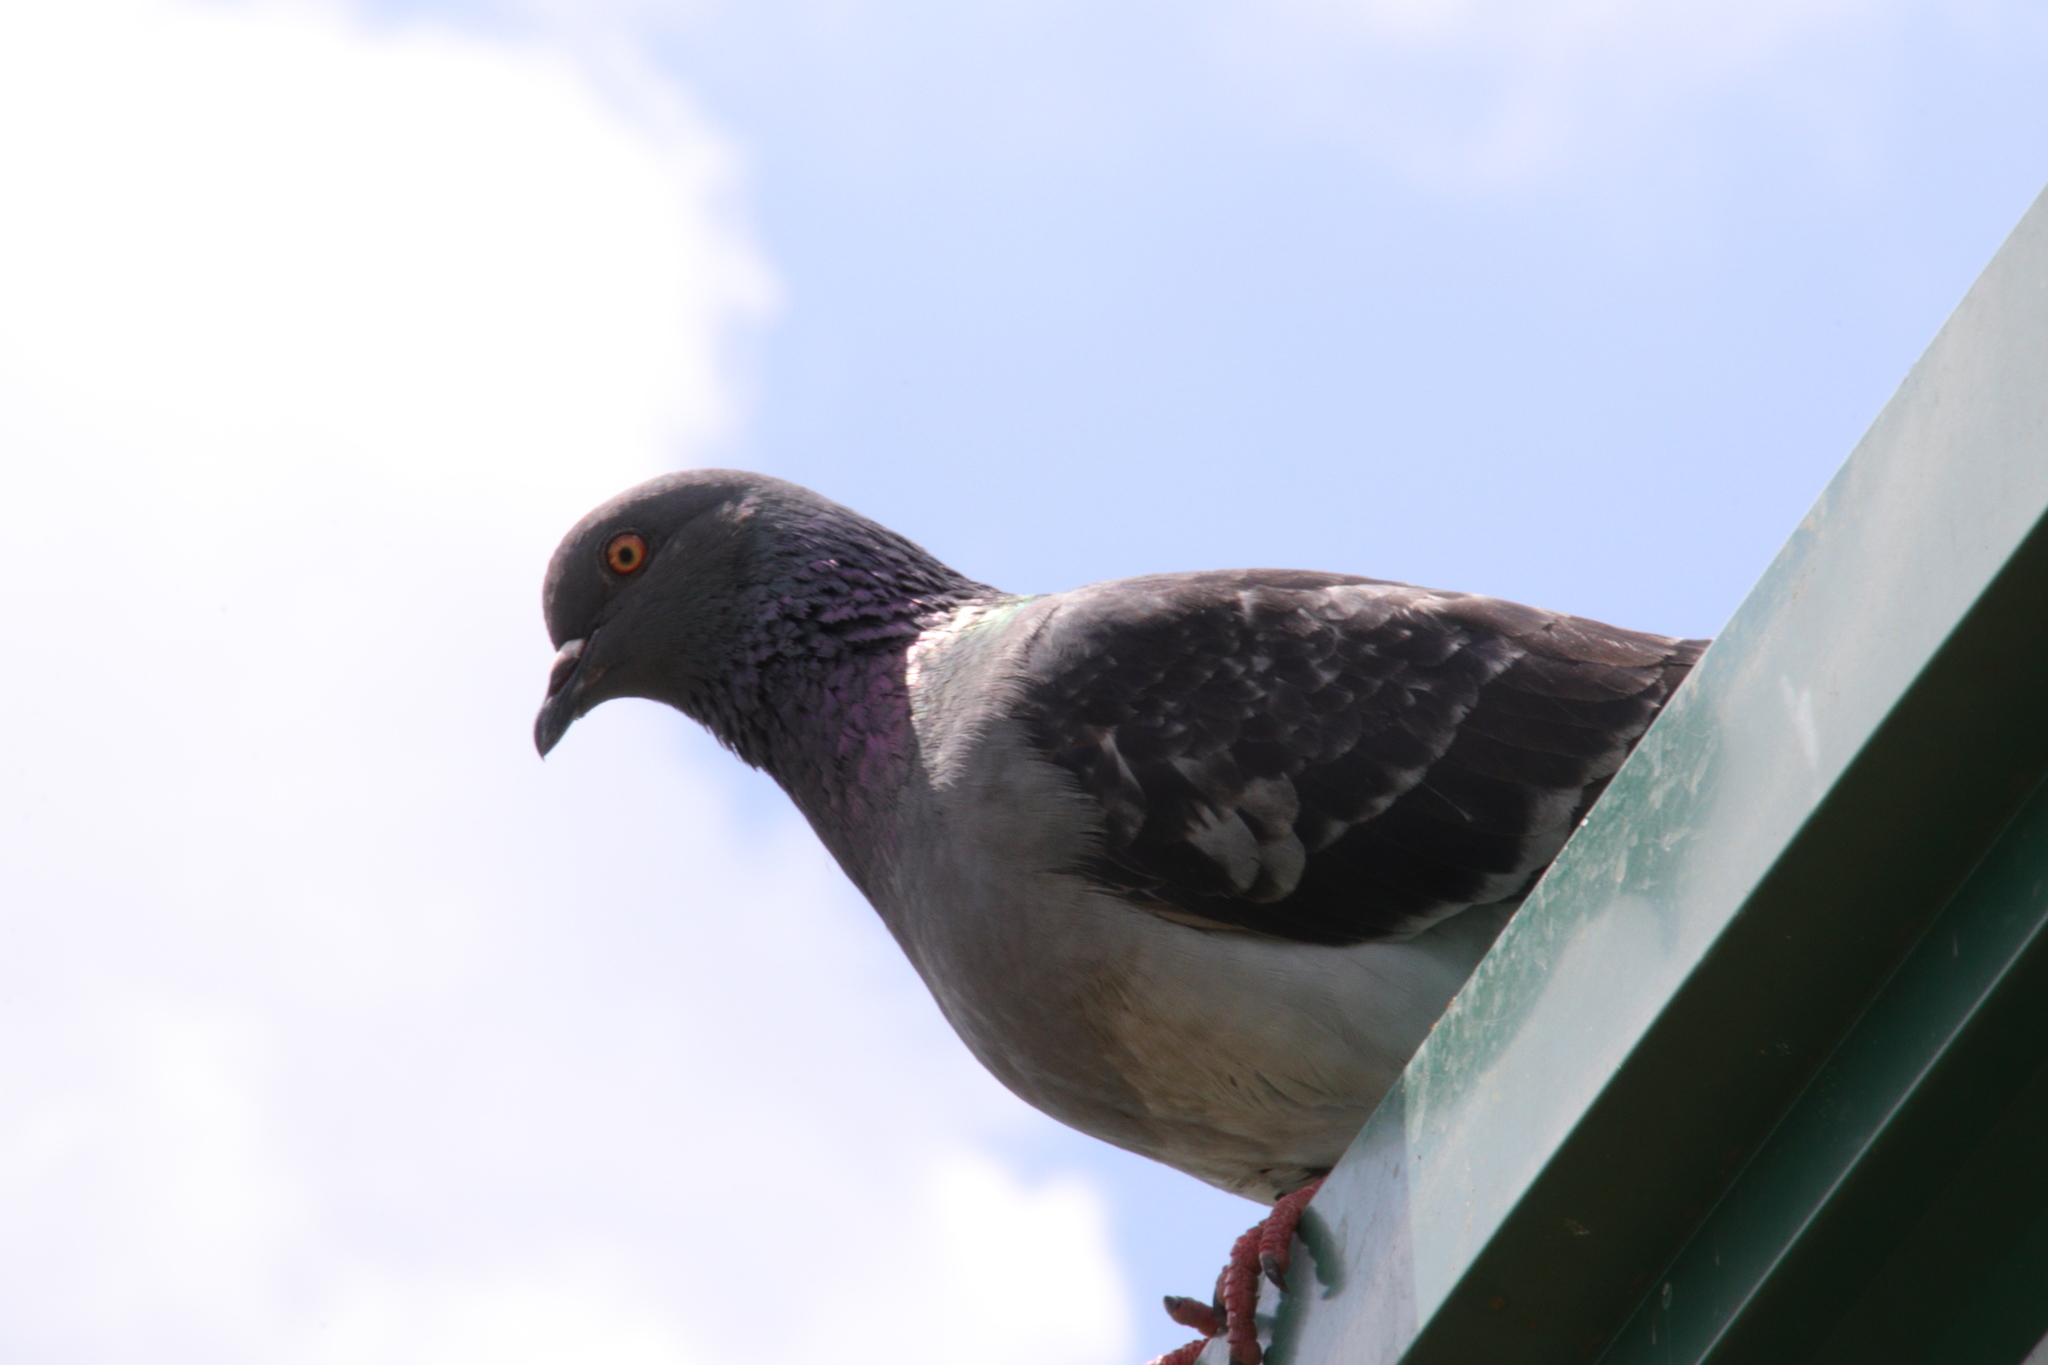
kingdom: Animalia
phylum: Chordata
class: Aves
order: Columbiformes
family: Columbidae
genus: Columba
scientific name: Columba livia
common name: Rock pigeon
